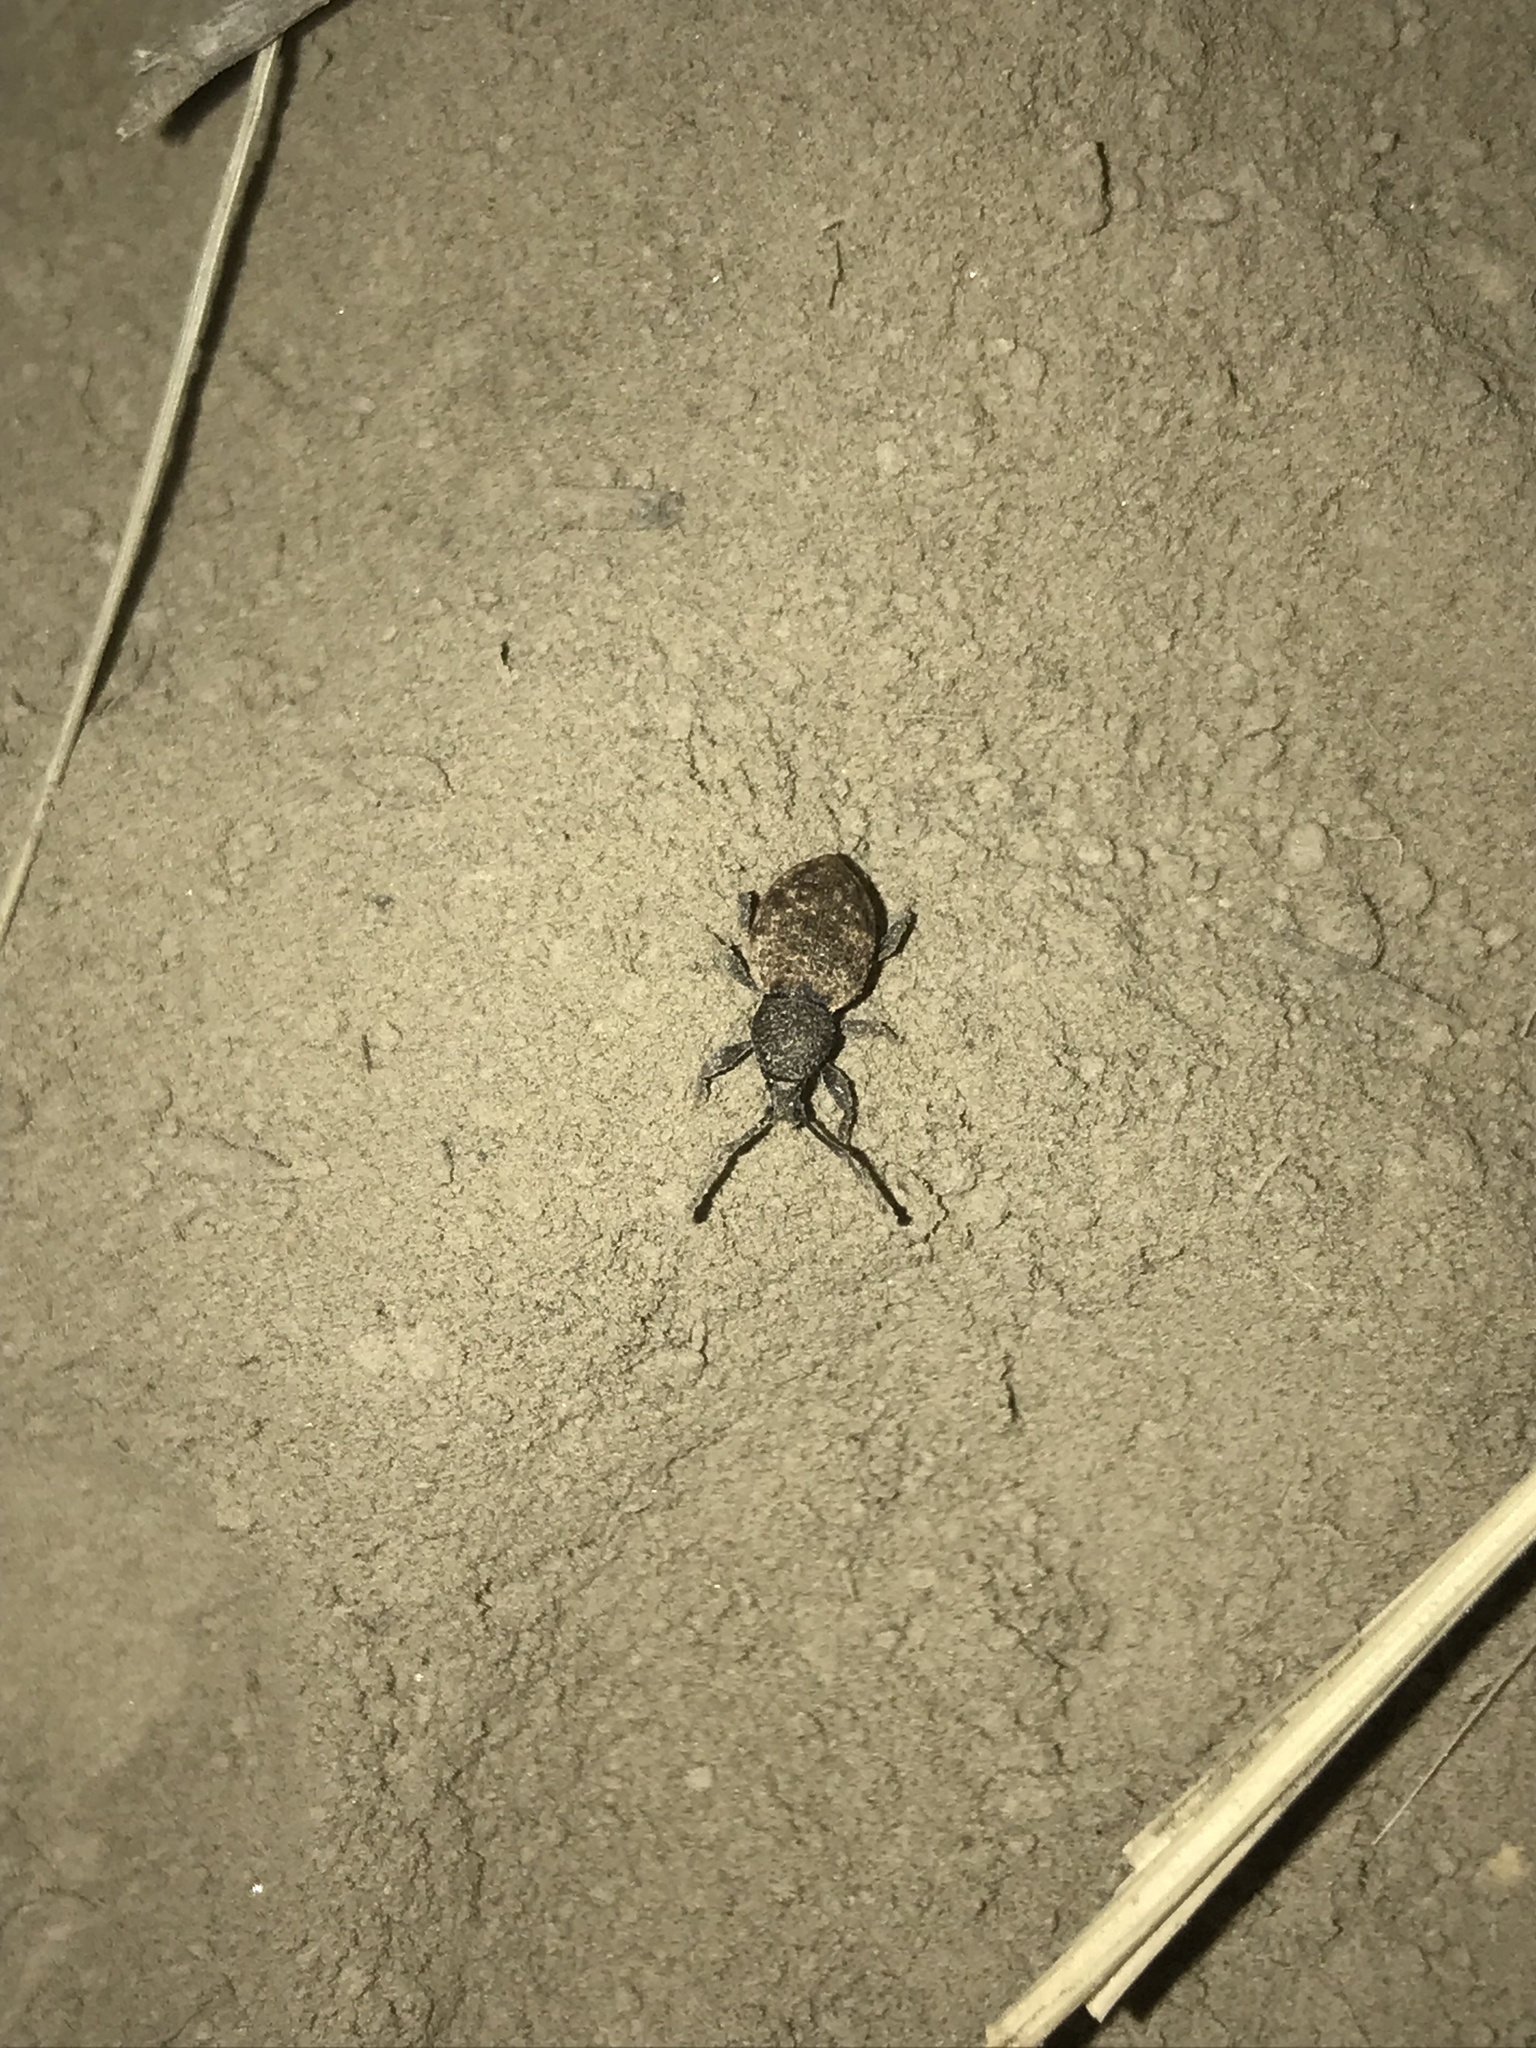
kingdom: Animalia
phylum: Arthropoda
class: Insecta
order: Coleoptera
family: Curculionidae
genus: Otiorhynchus
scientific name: Otiorhynchus raucus
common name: Weevil
